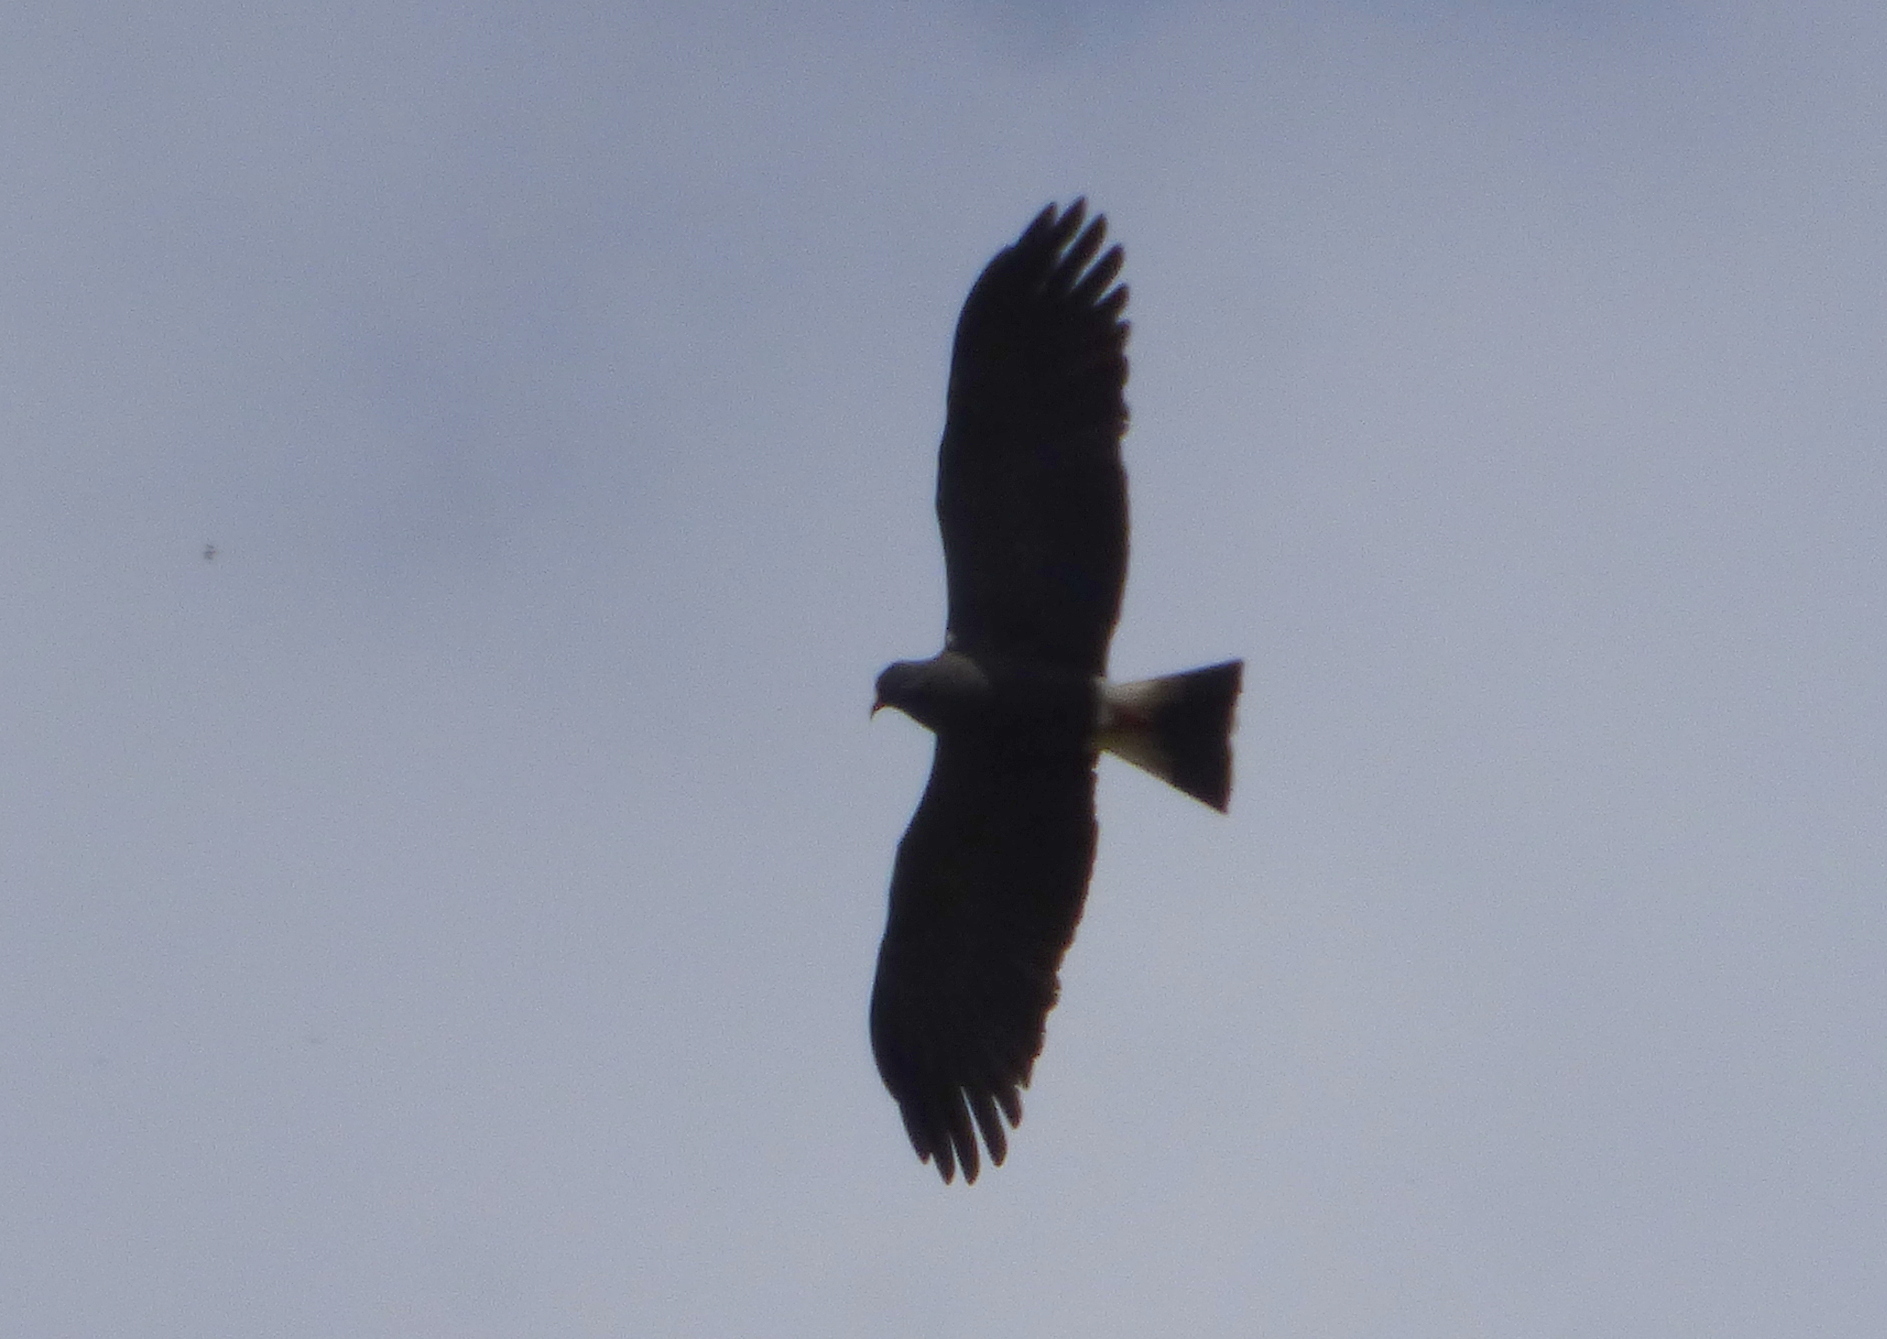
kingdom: Animalia
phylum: Chordata
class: Aves
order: Accipitriformes
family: Accipitridae
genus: Rostrhamus
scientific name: Rostrhamus sociabilis
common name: Snail kite
